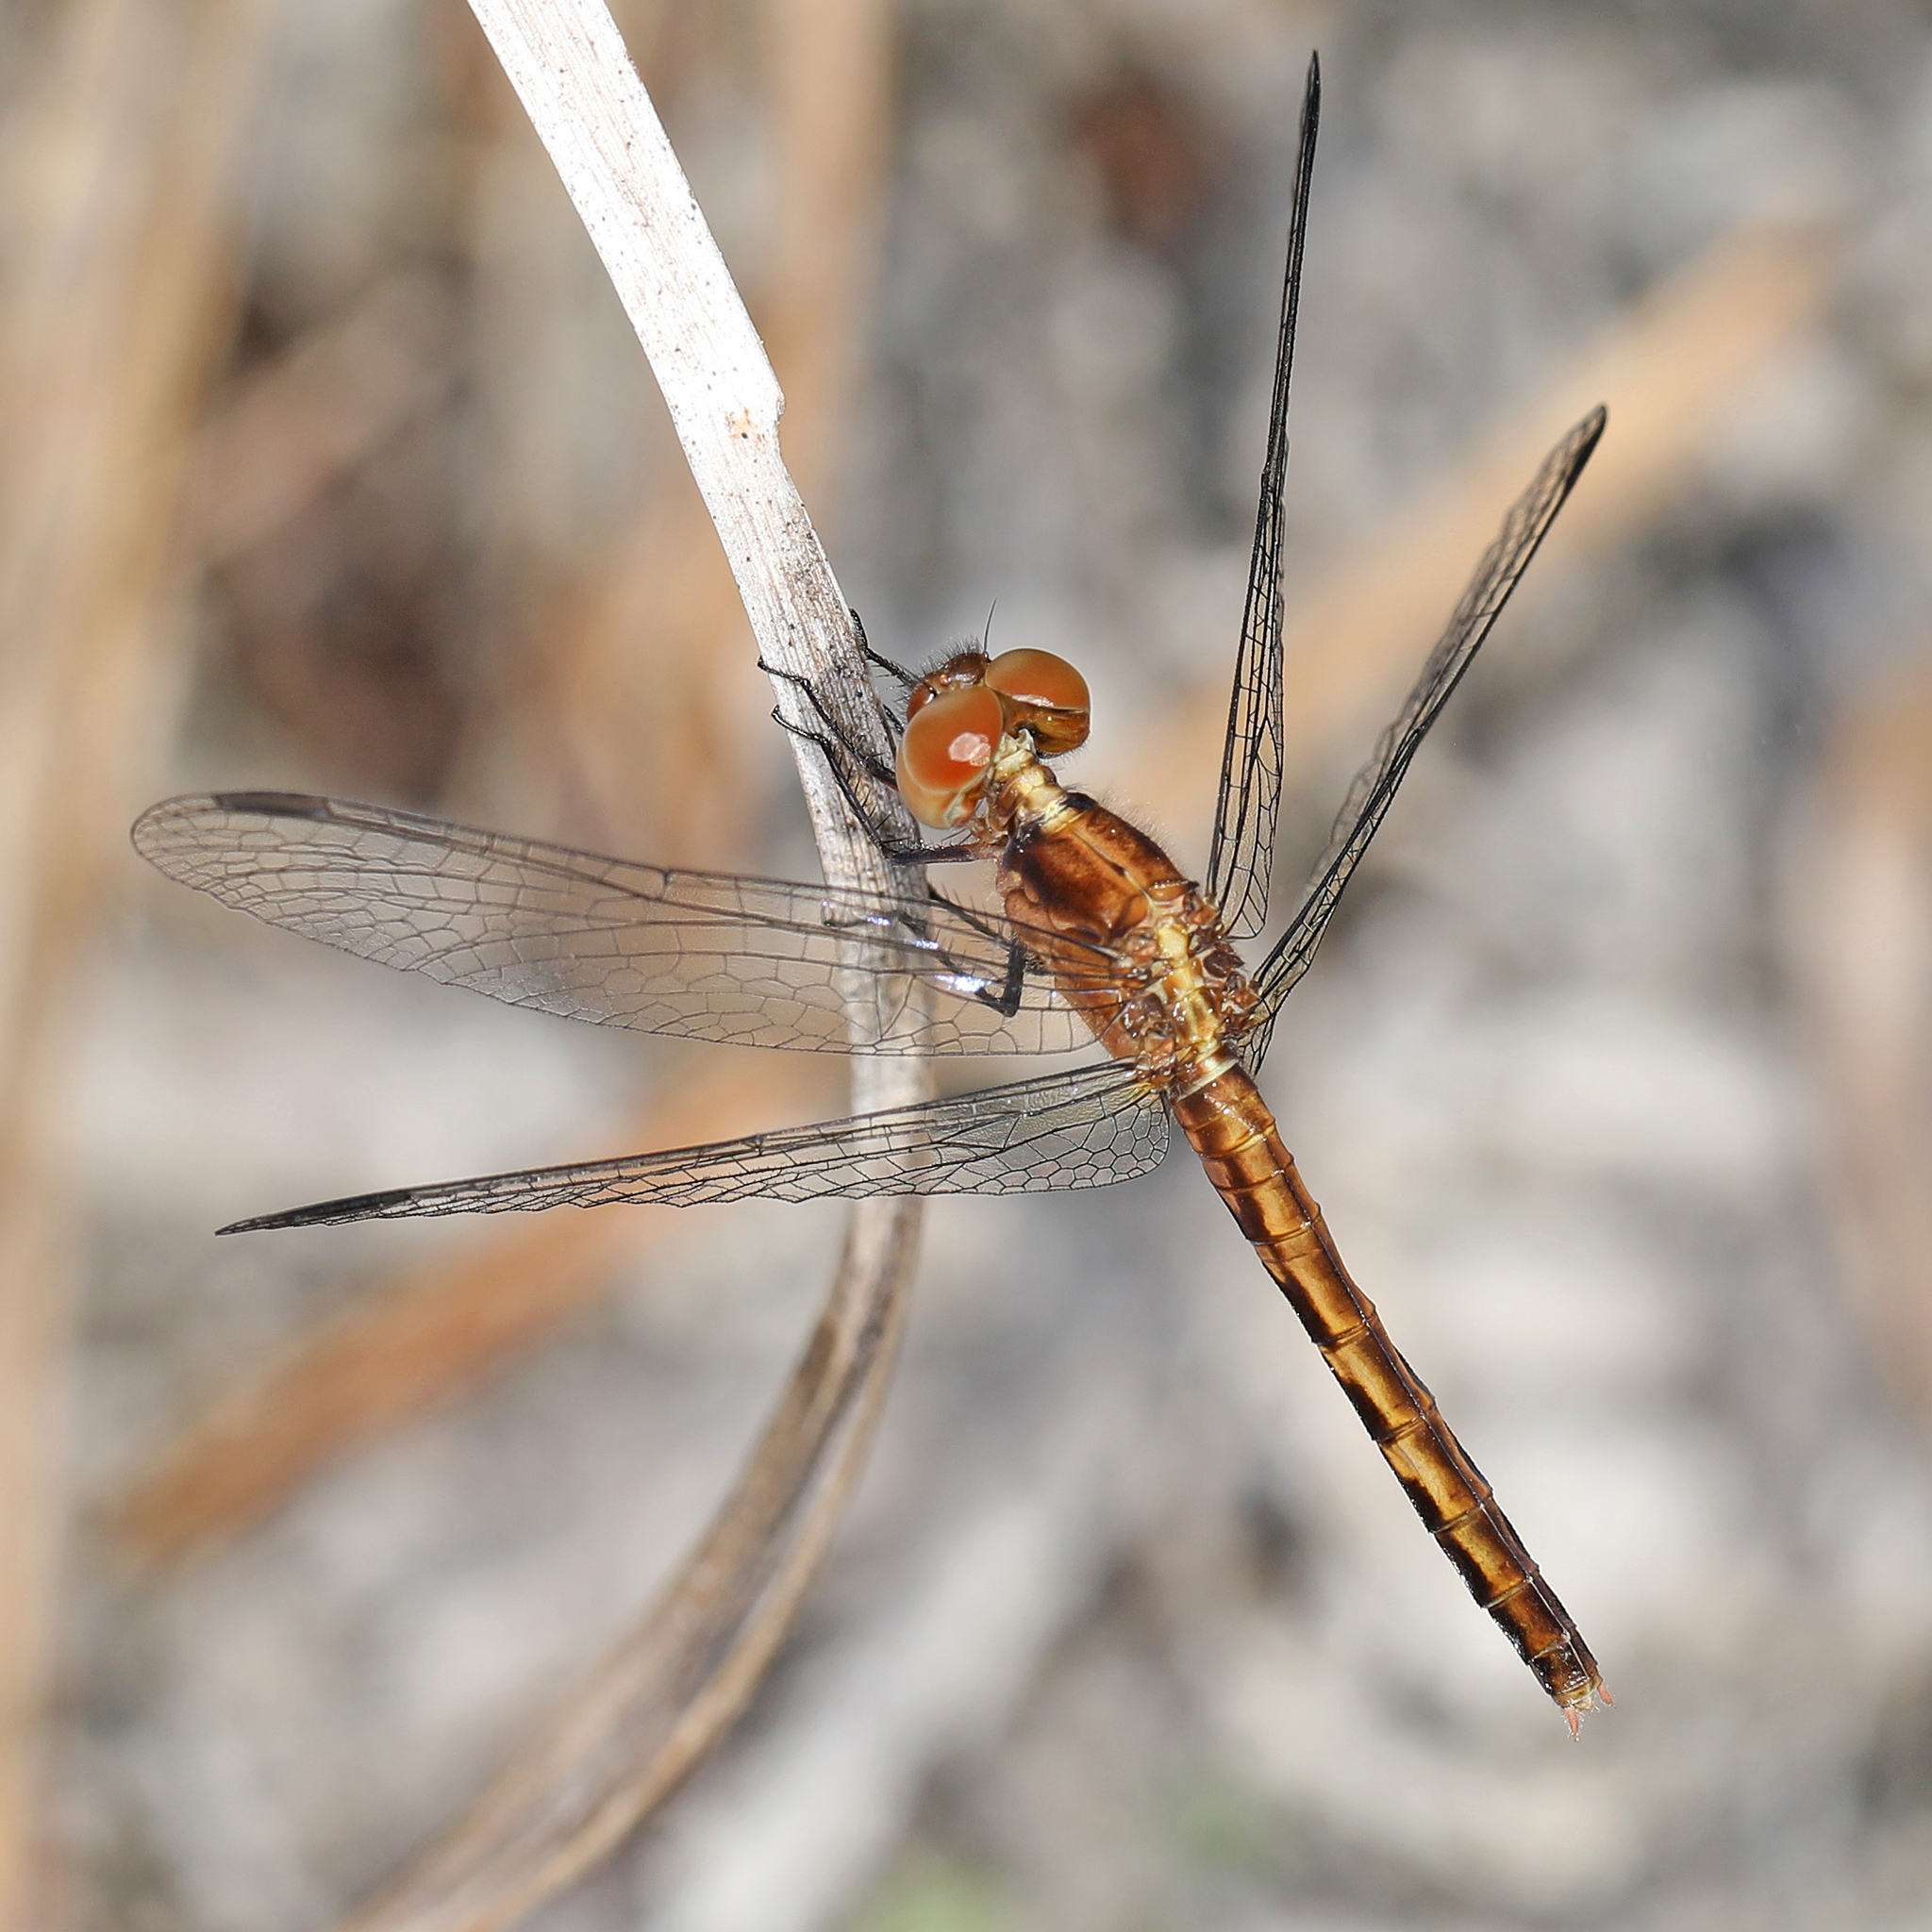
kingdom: Animalia
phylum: Arthropoda
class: Insecta
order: Odonata
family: Libellulidae
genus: Erythrodiplax
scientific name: Erythrodiplax minuscula
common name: Little blue dragonlet
